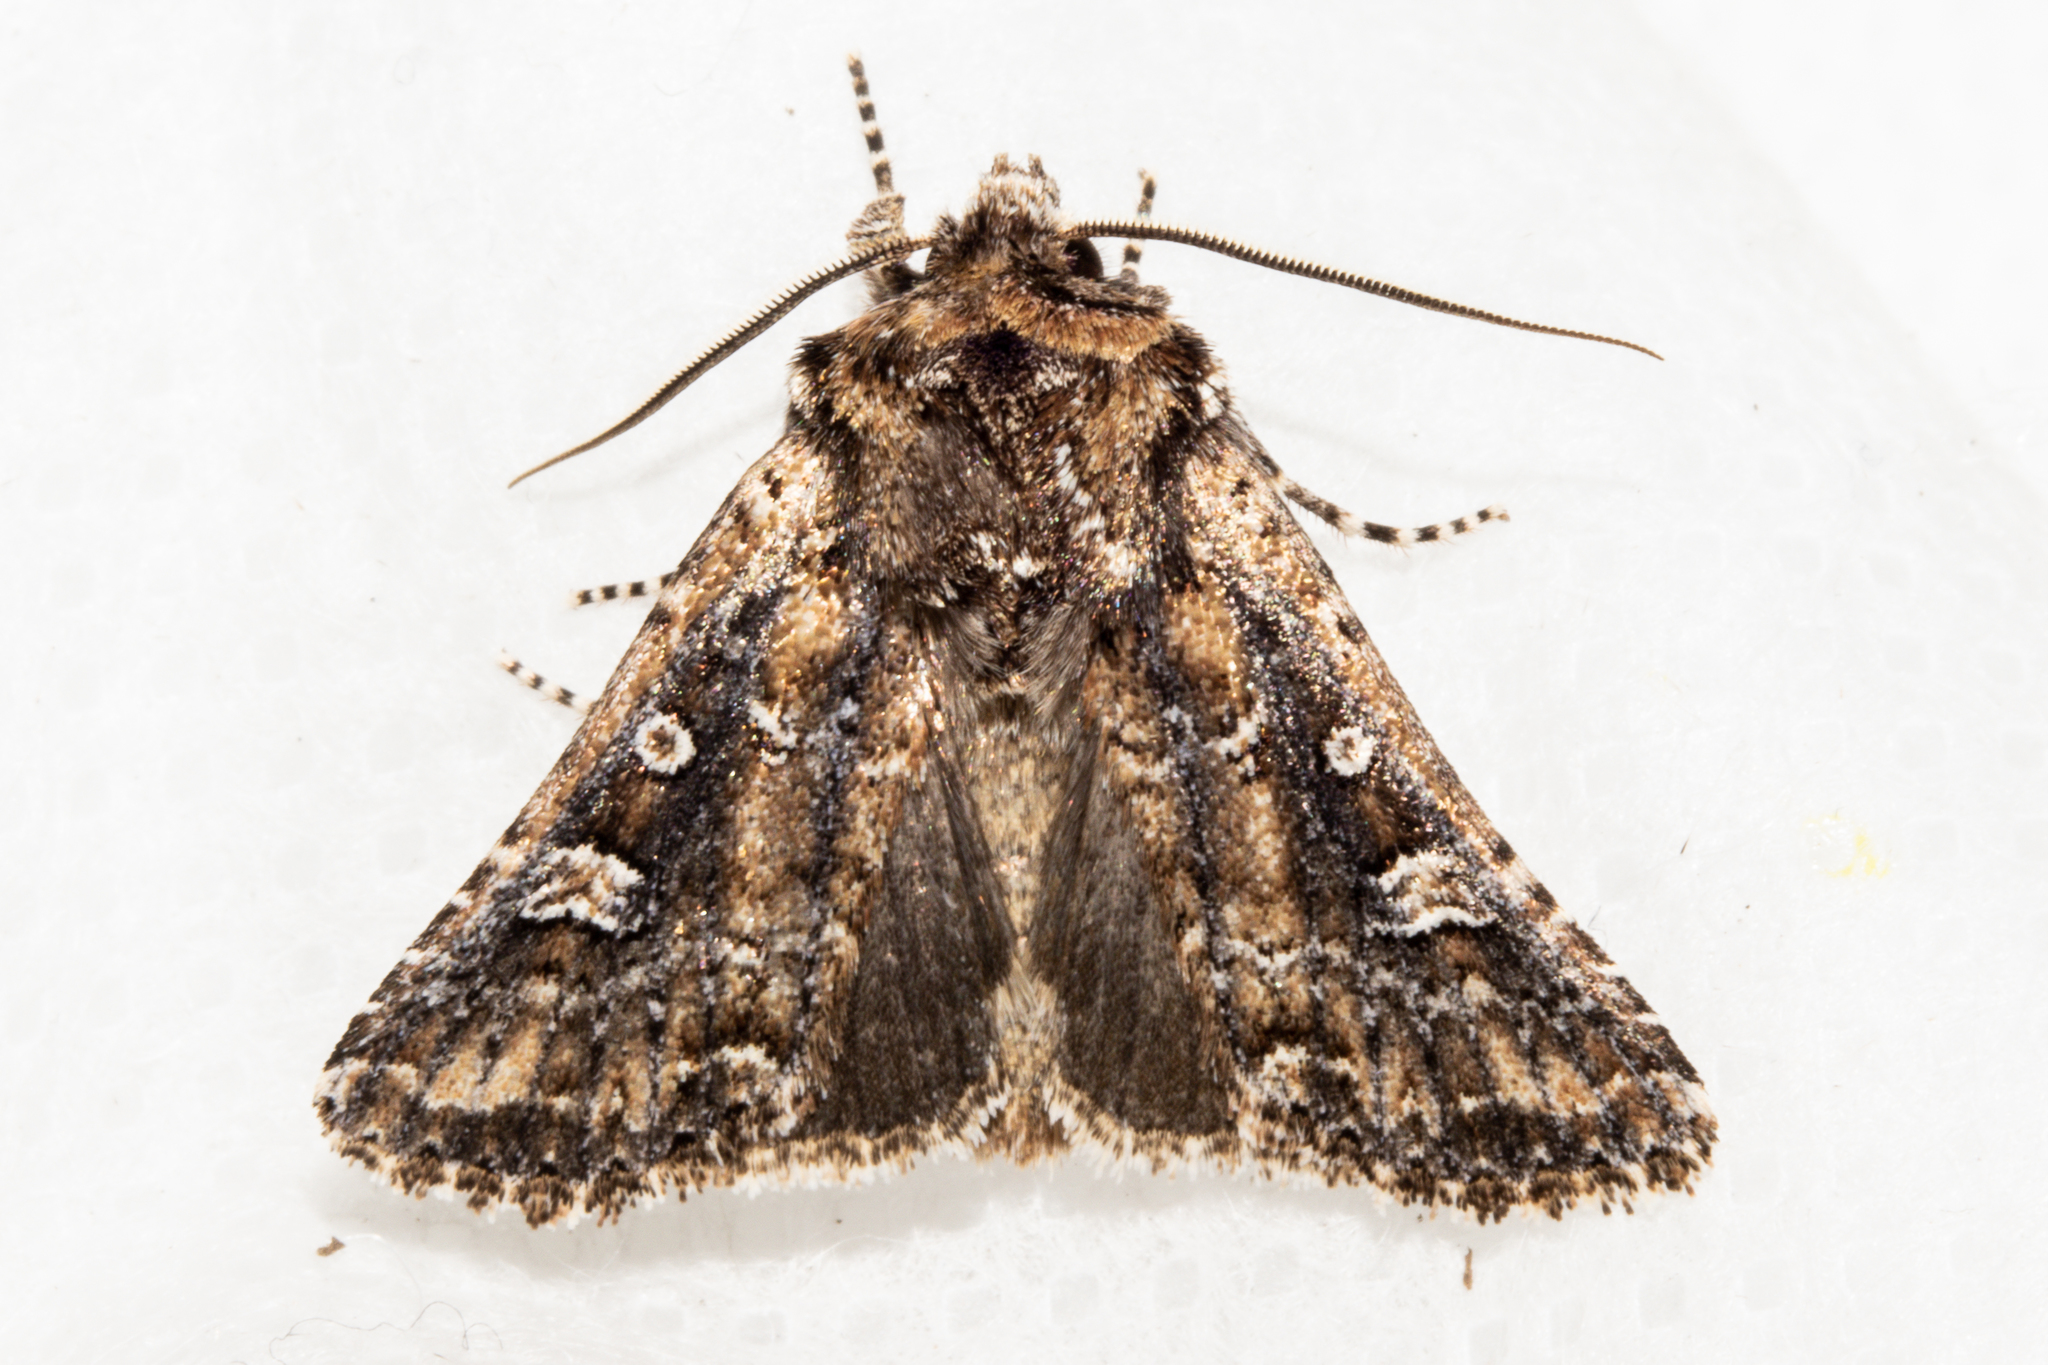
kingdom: Animalia
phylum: Arthropoda
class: Insecta
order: Lepidoptera
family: Noctuidae
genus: Ichneutica
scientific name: Ichneutica lithias
